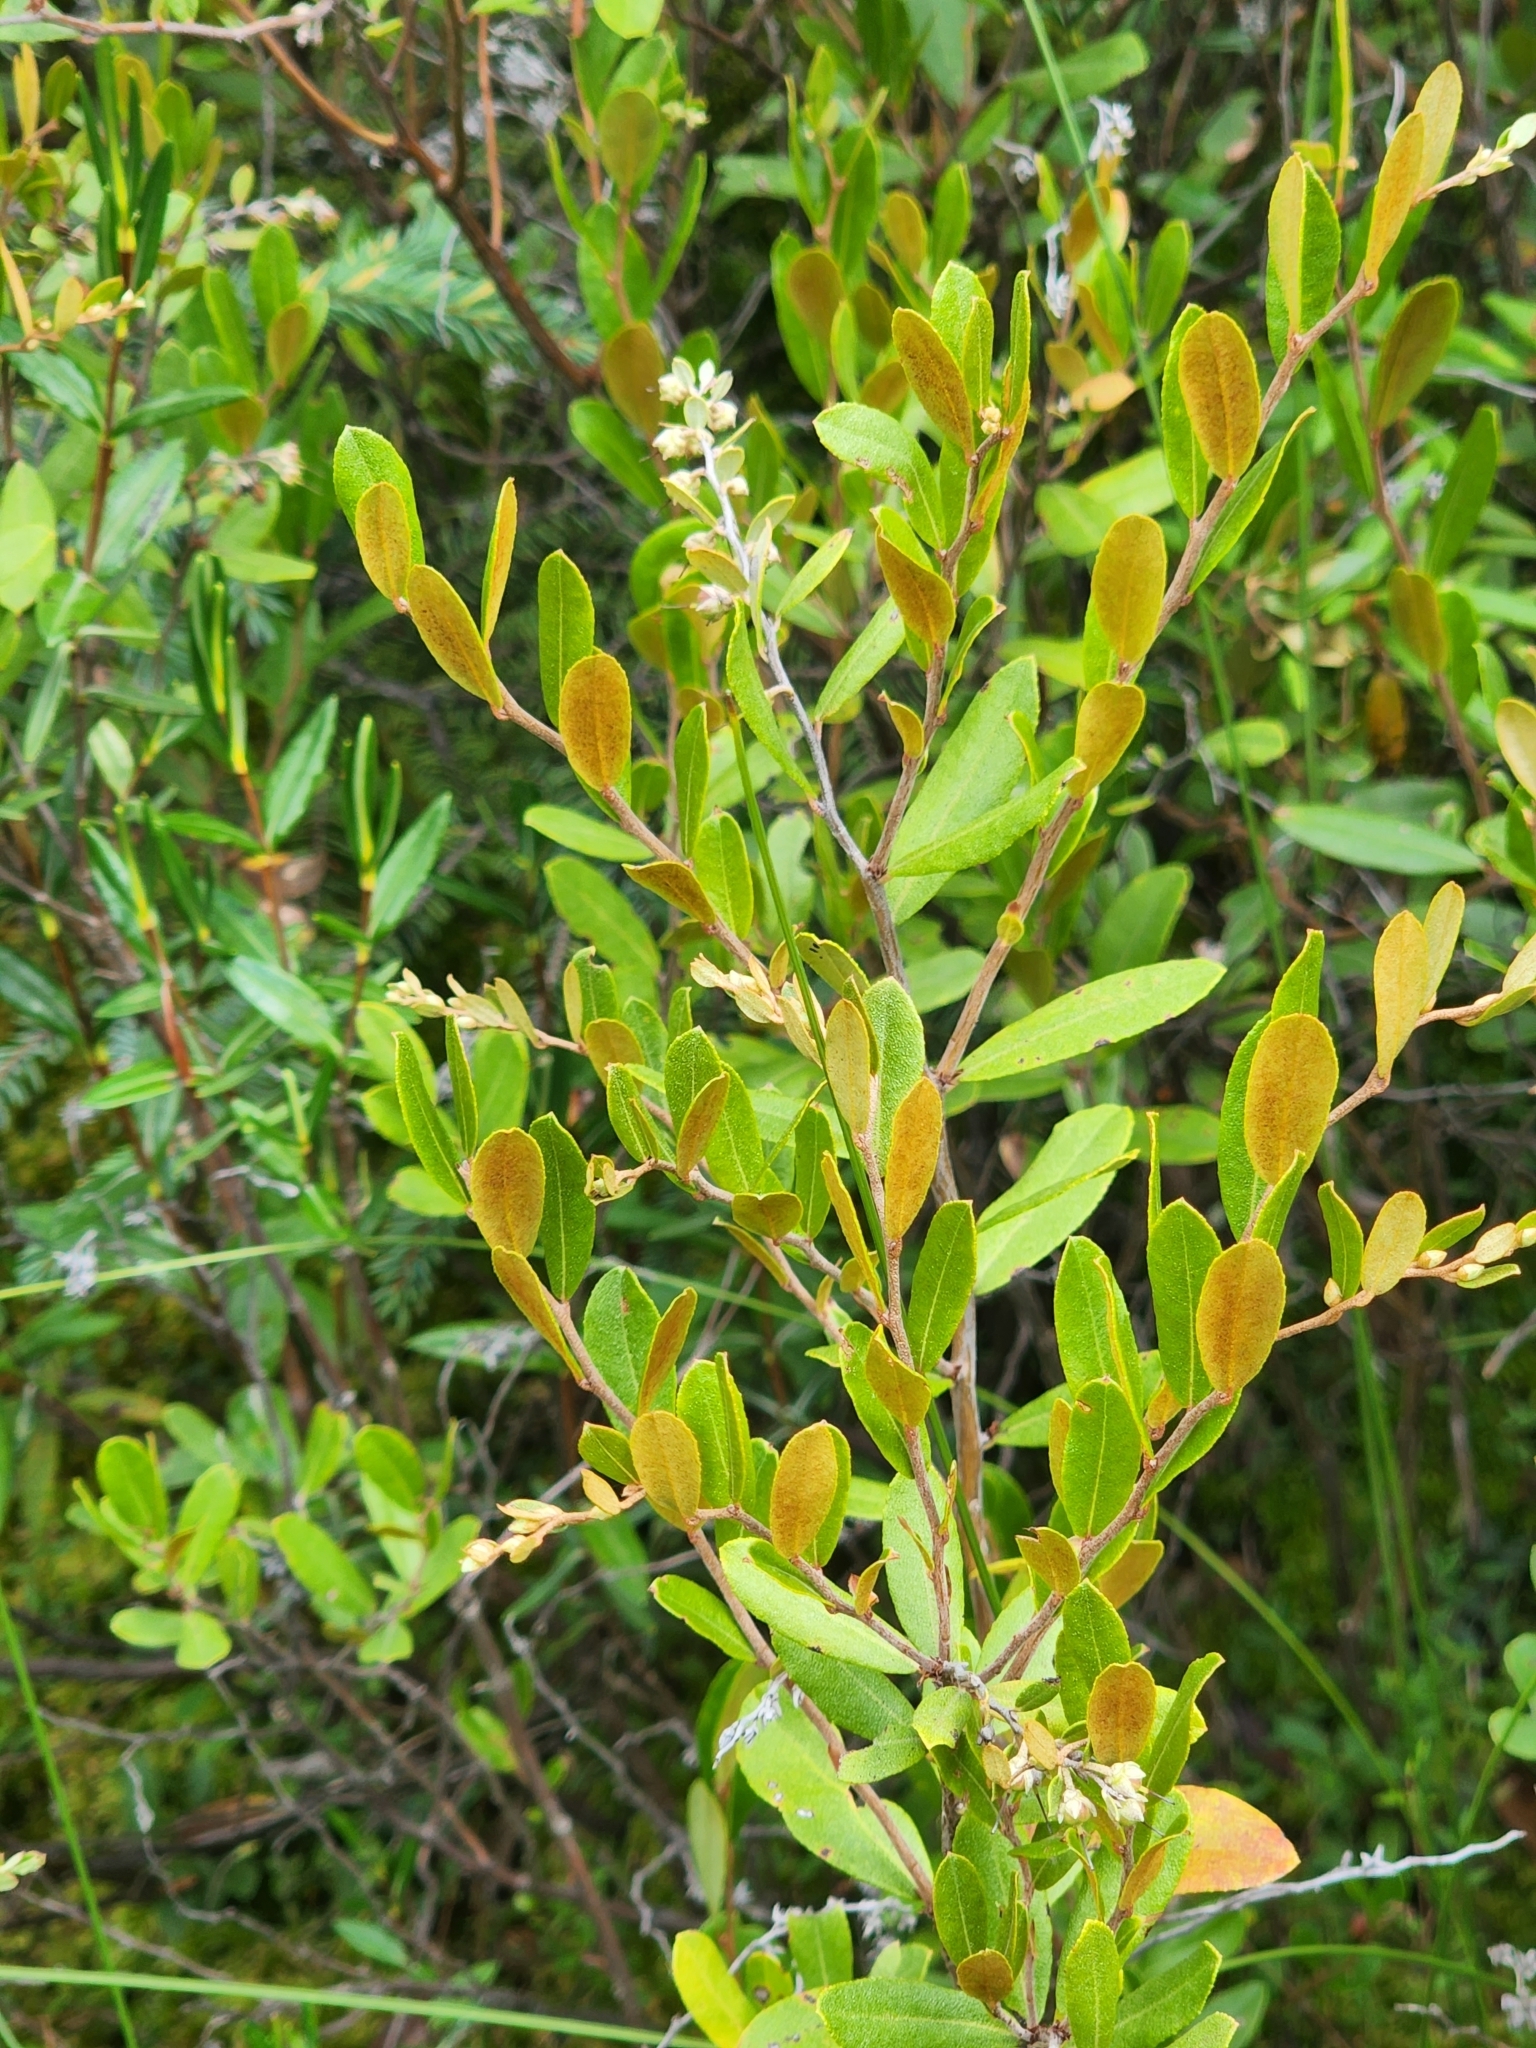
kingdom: Plantae
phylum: Tracheophyta
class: Magnoliopsida
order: Ericales
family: Ericaceae
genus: Chamaedaphne
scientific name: Chamaedaphne calyculata
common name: Leatherleaf
